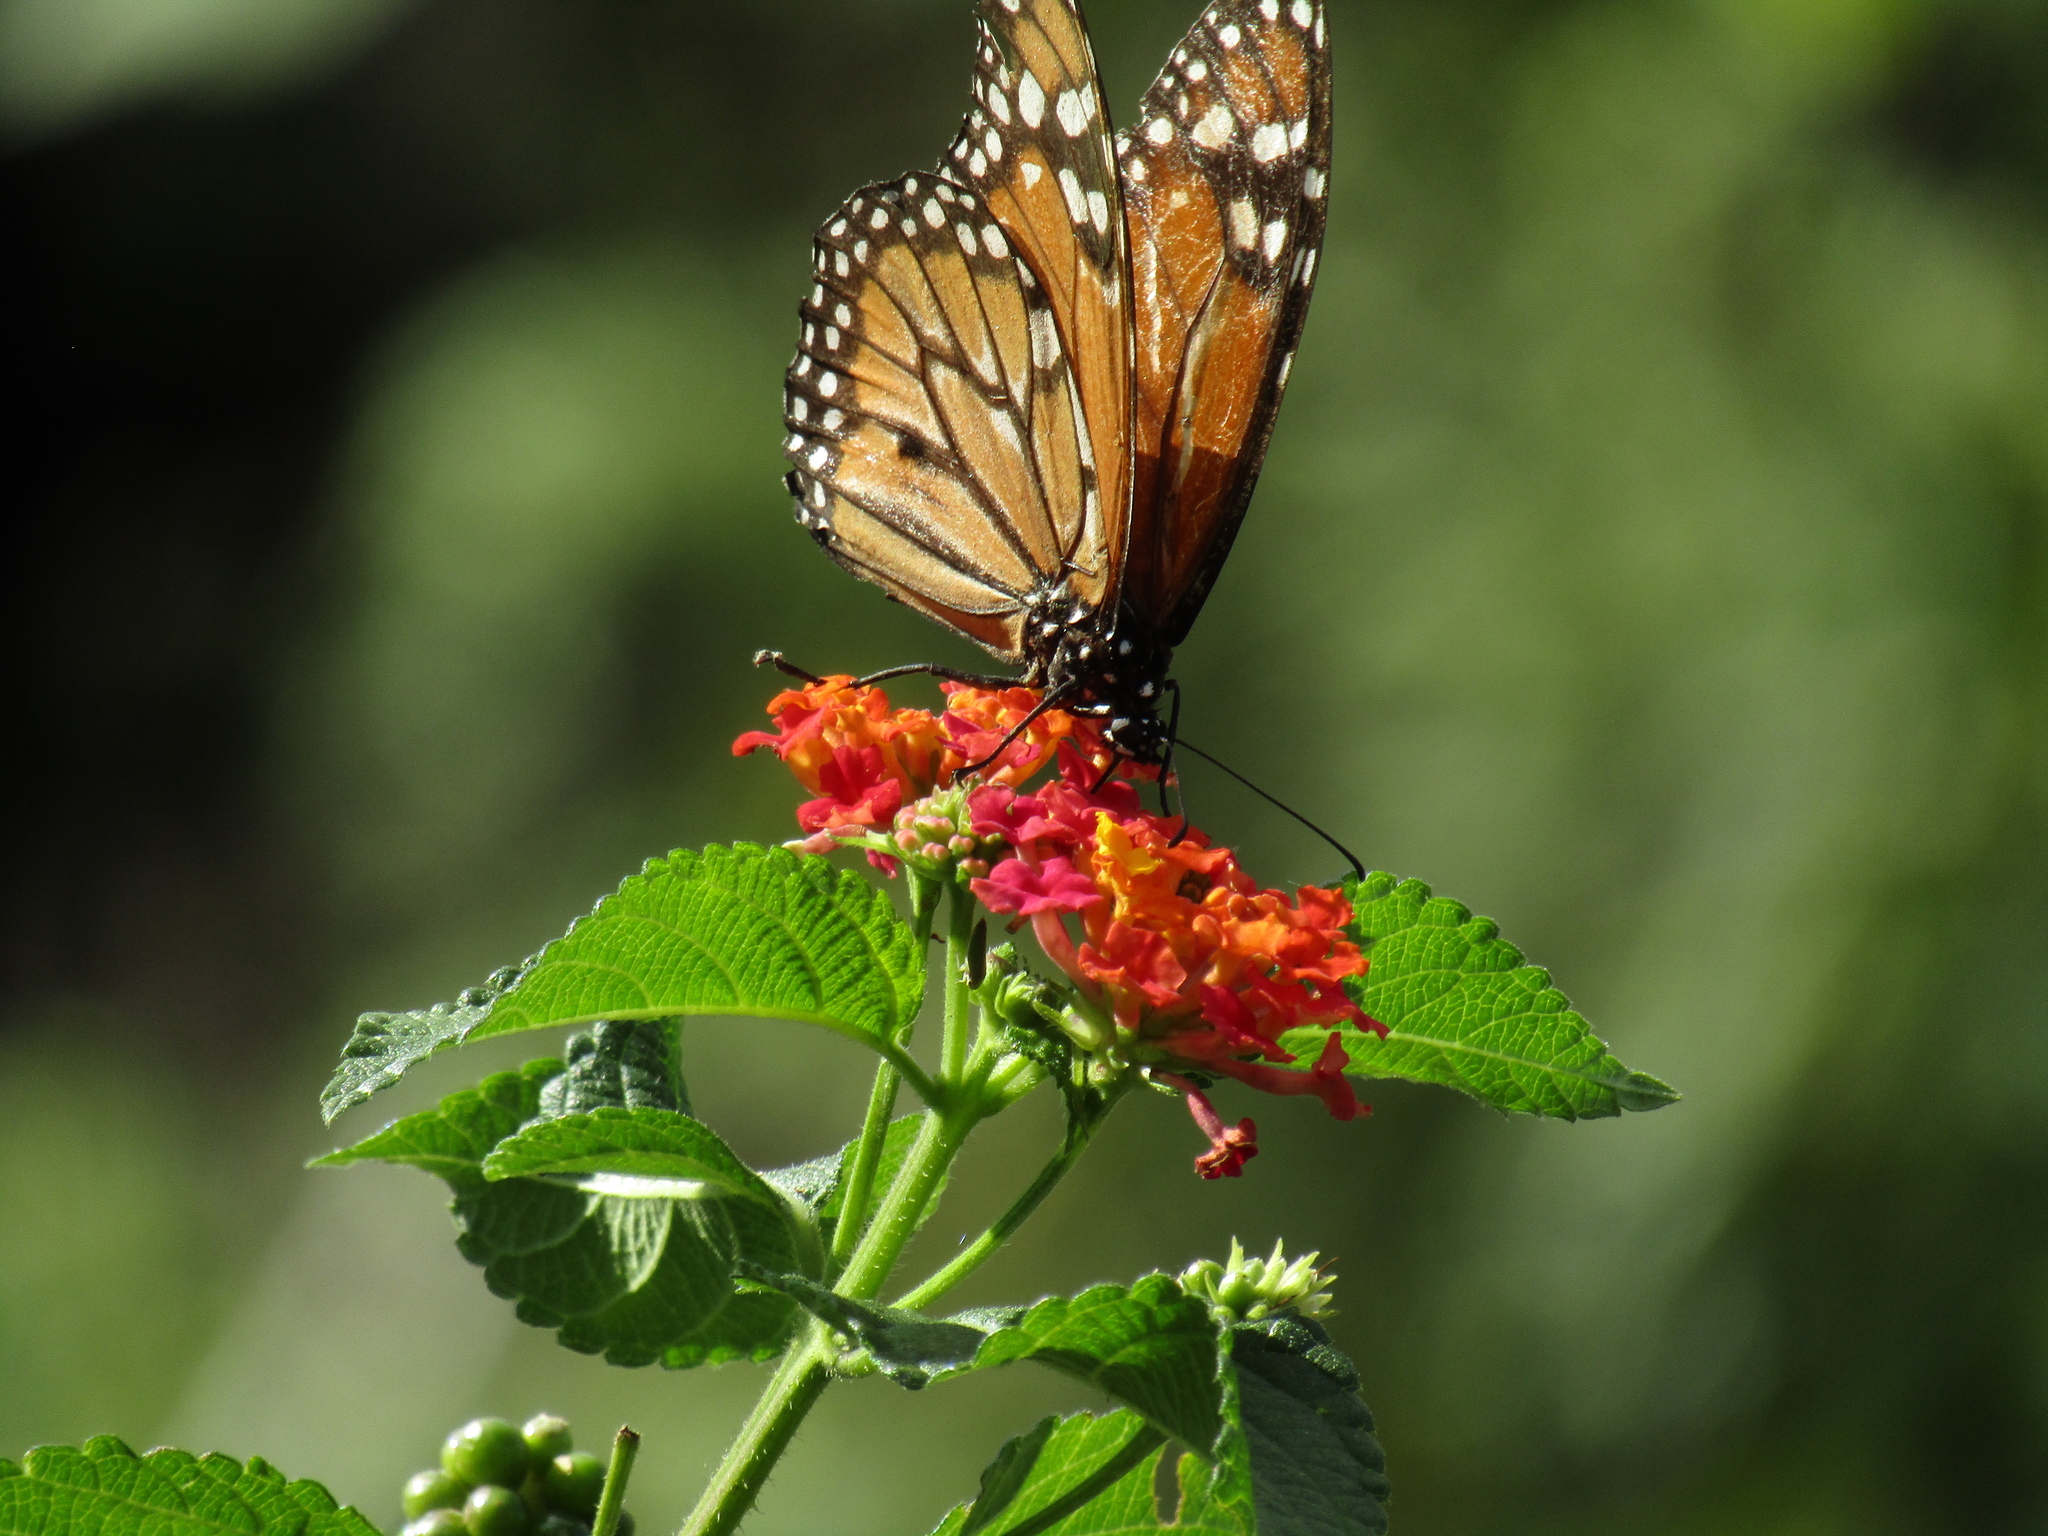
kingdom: Animalia
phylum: Arthropoda
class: Insecta
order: Lepidoptera
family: Nymphalidae
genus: Danaus
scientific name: Danaus erippus
